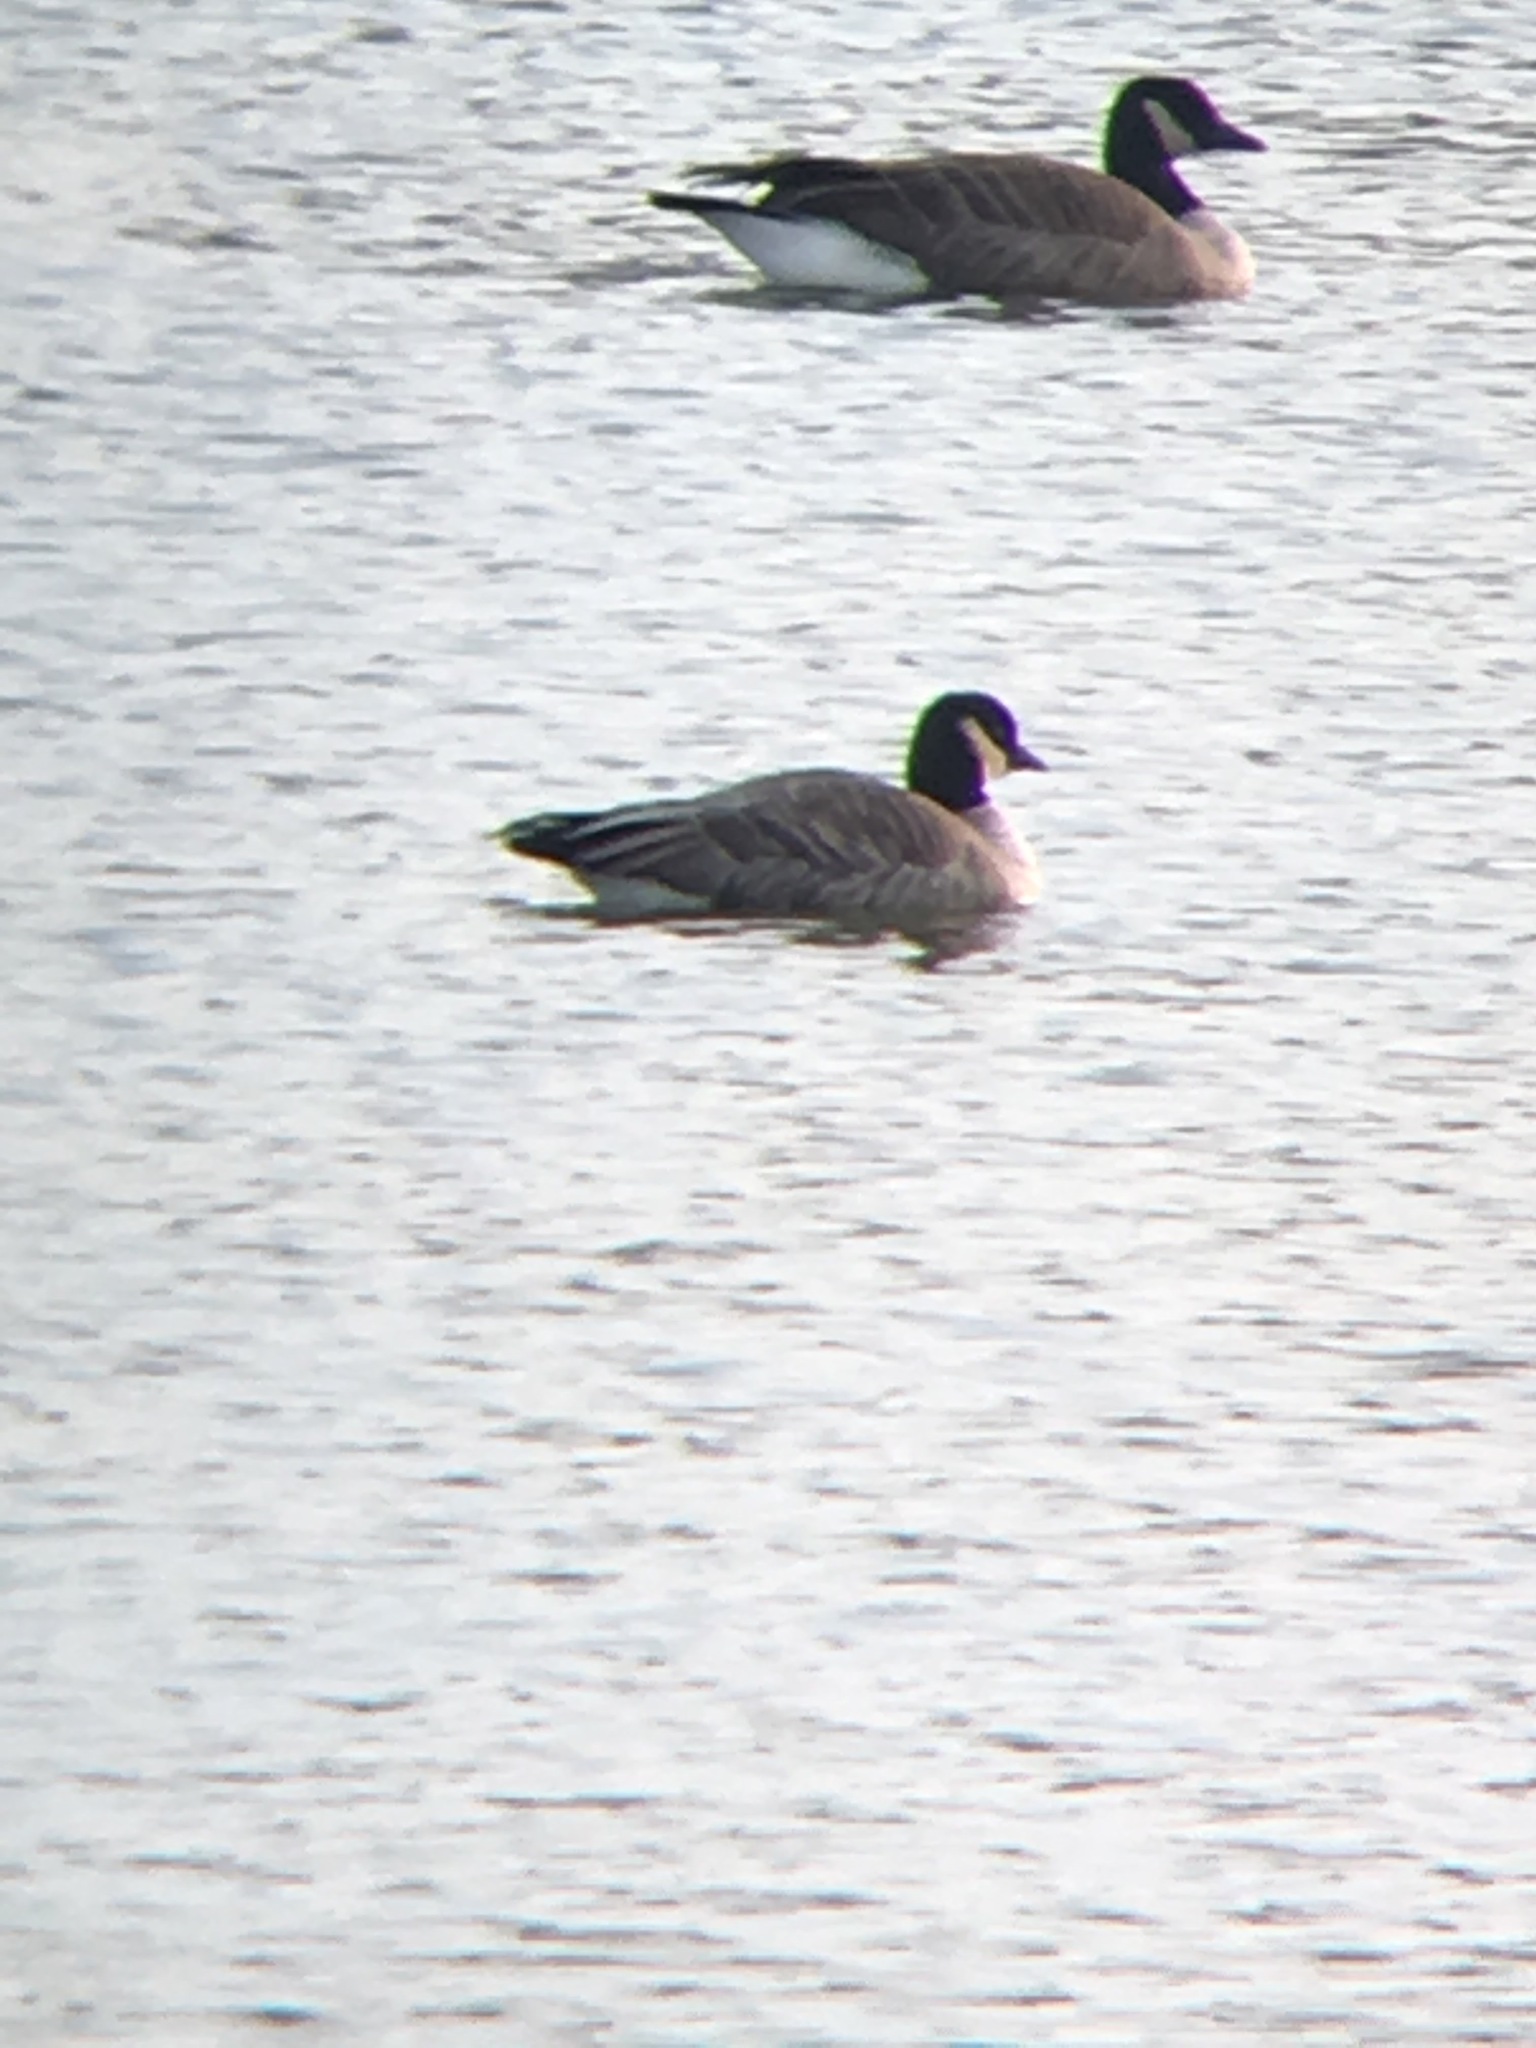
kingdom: Animalia
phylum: Chordata
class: Aves
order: Anseriformes
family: Anatidae
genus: Branta
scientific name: Branta hutchinsii
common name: Cackling goose
